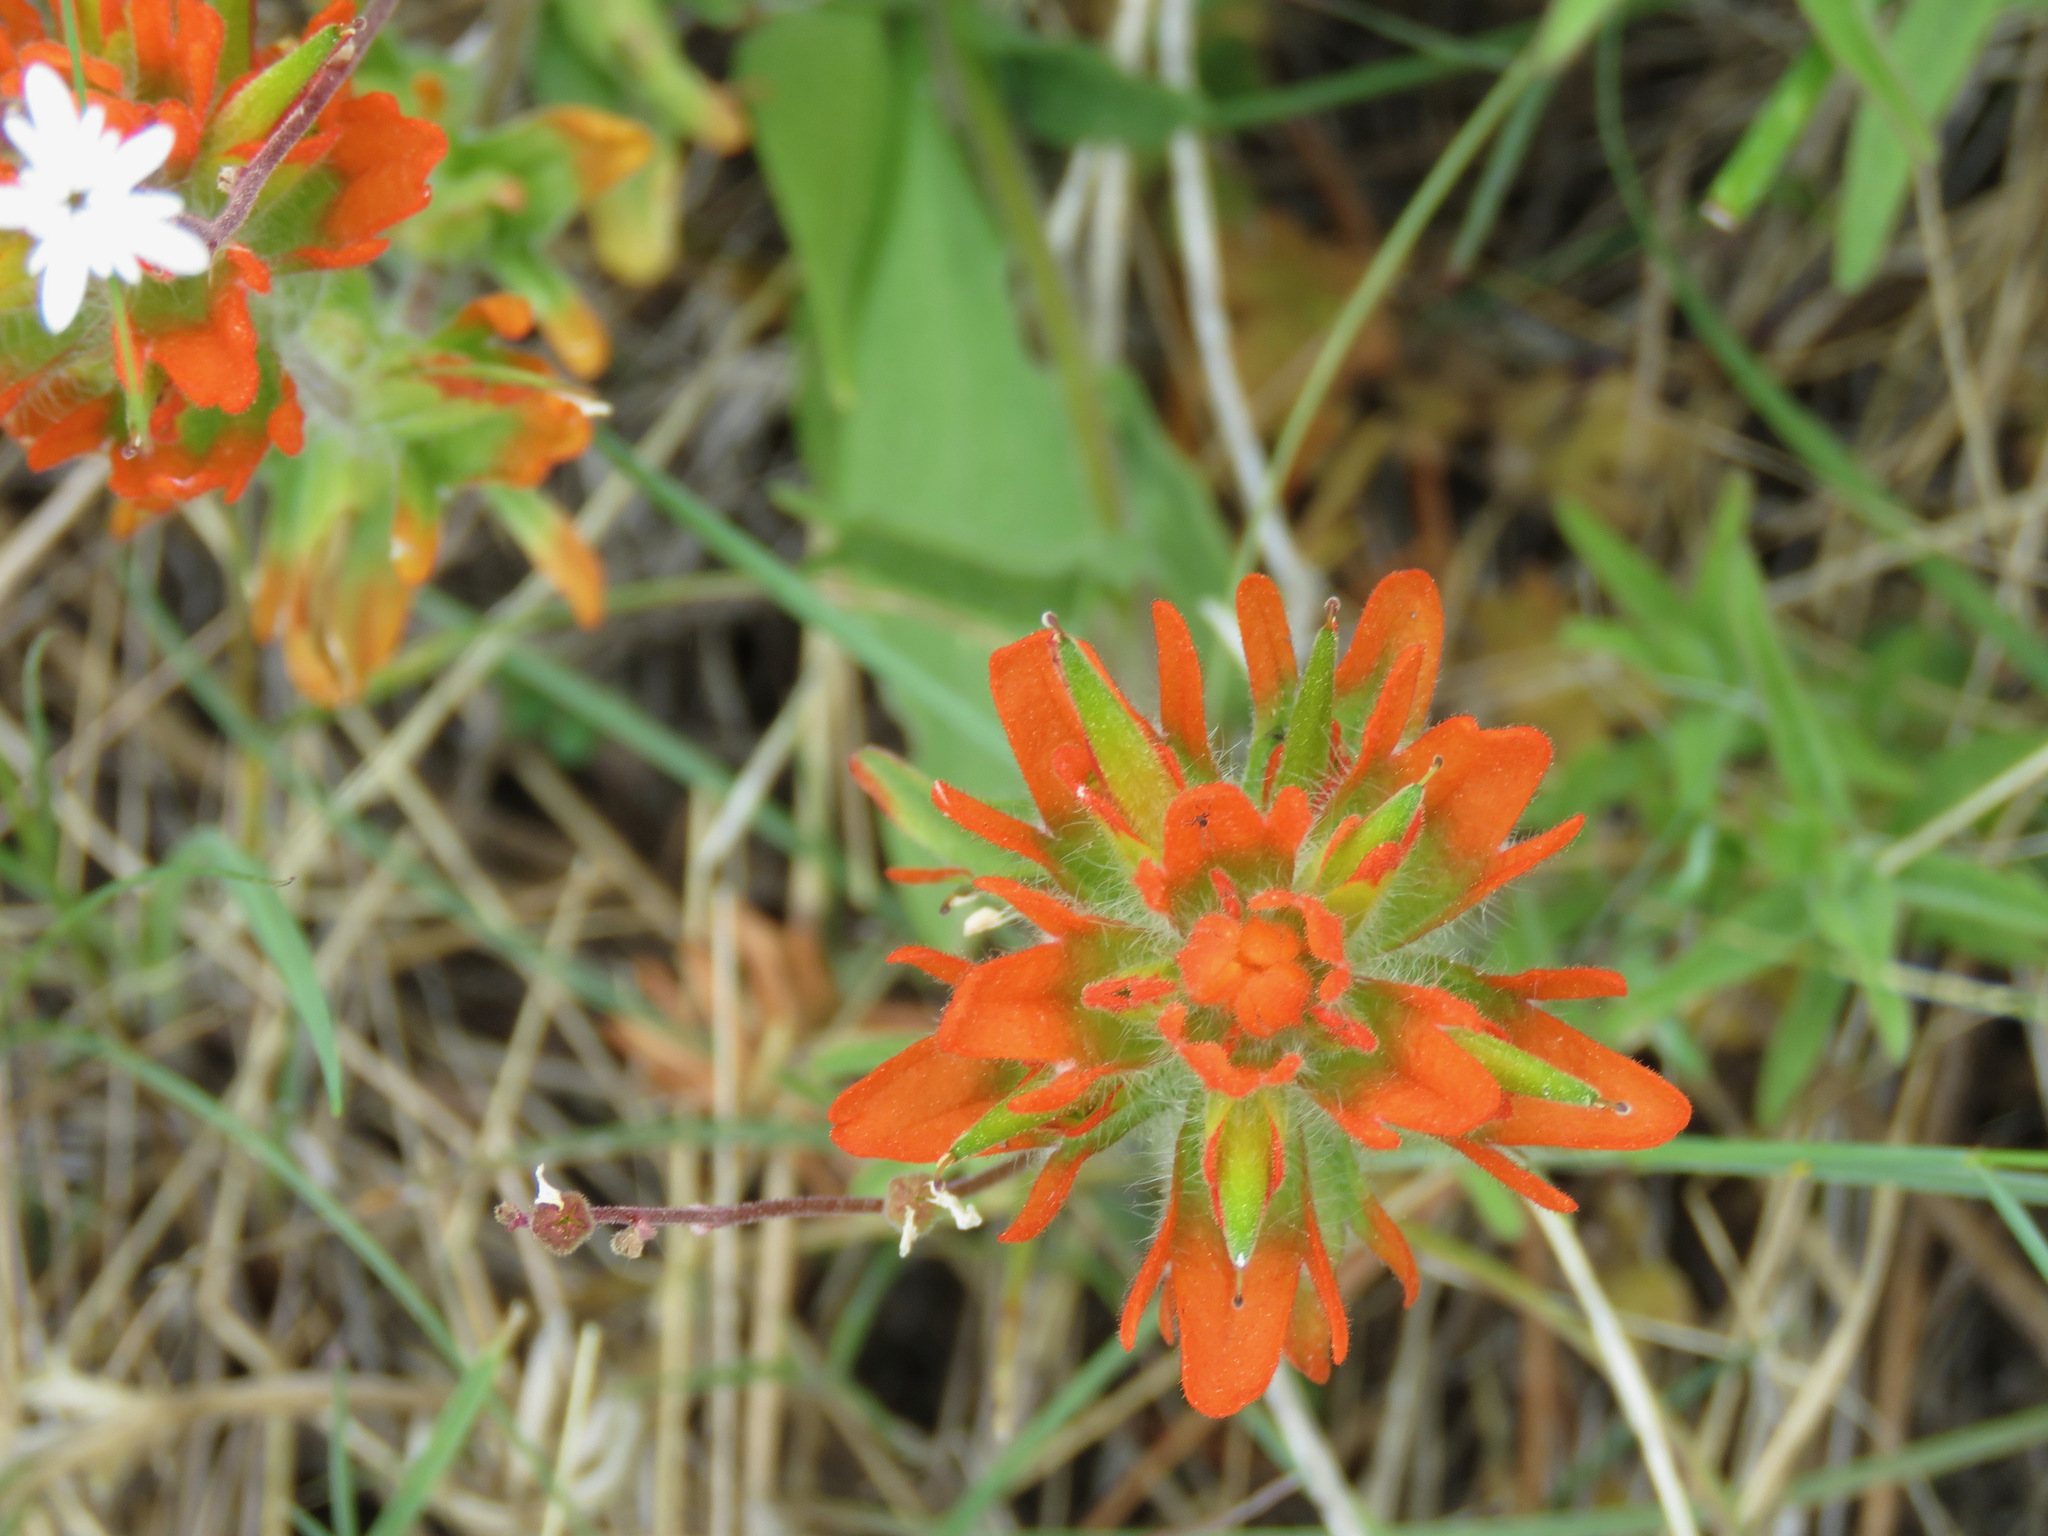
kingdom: Plantae
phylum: Tracheophyta
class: Magnoliopsida
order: Lamiales
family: Orobanchaceae
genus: Castilleja
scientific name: Castilleja hispida
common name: Bristly paintbrush
